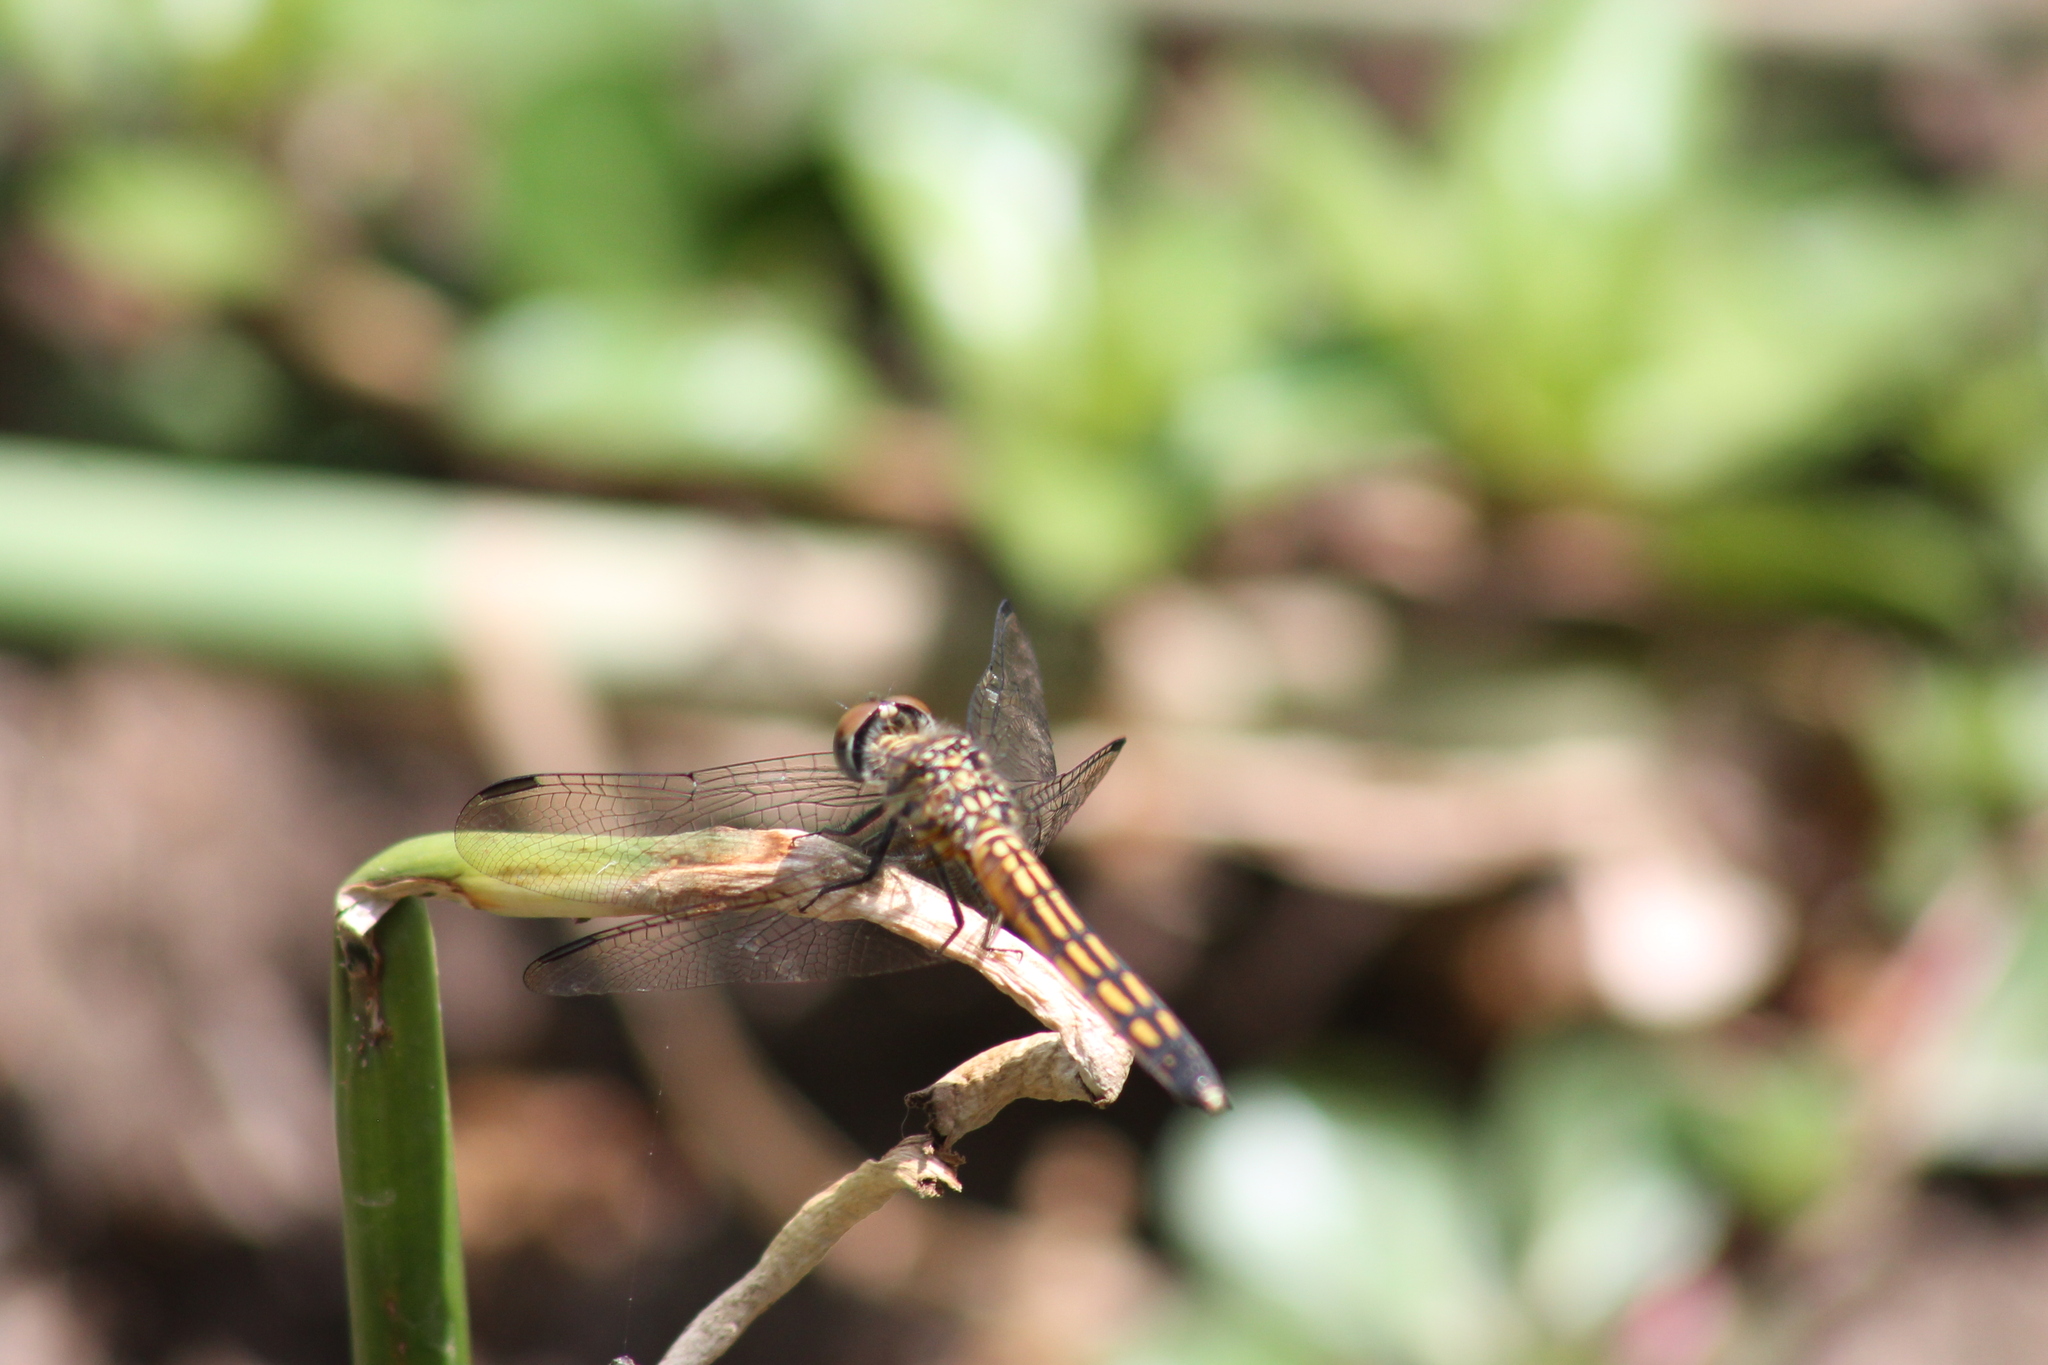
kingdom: Animalia
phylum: Arthropoda
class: Insecta
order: Odonata
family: Libellulidae
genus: Pachydiplax
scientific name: Pachydiplax longipennis
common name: Blue dasher
